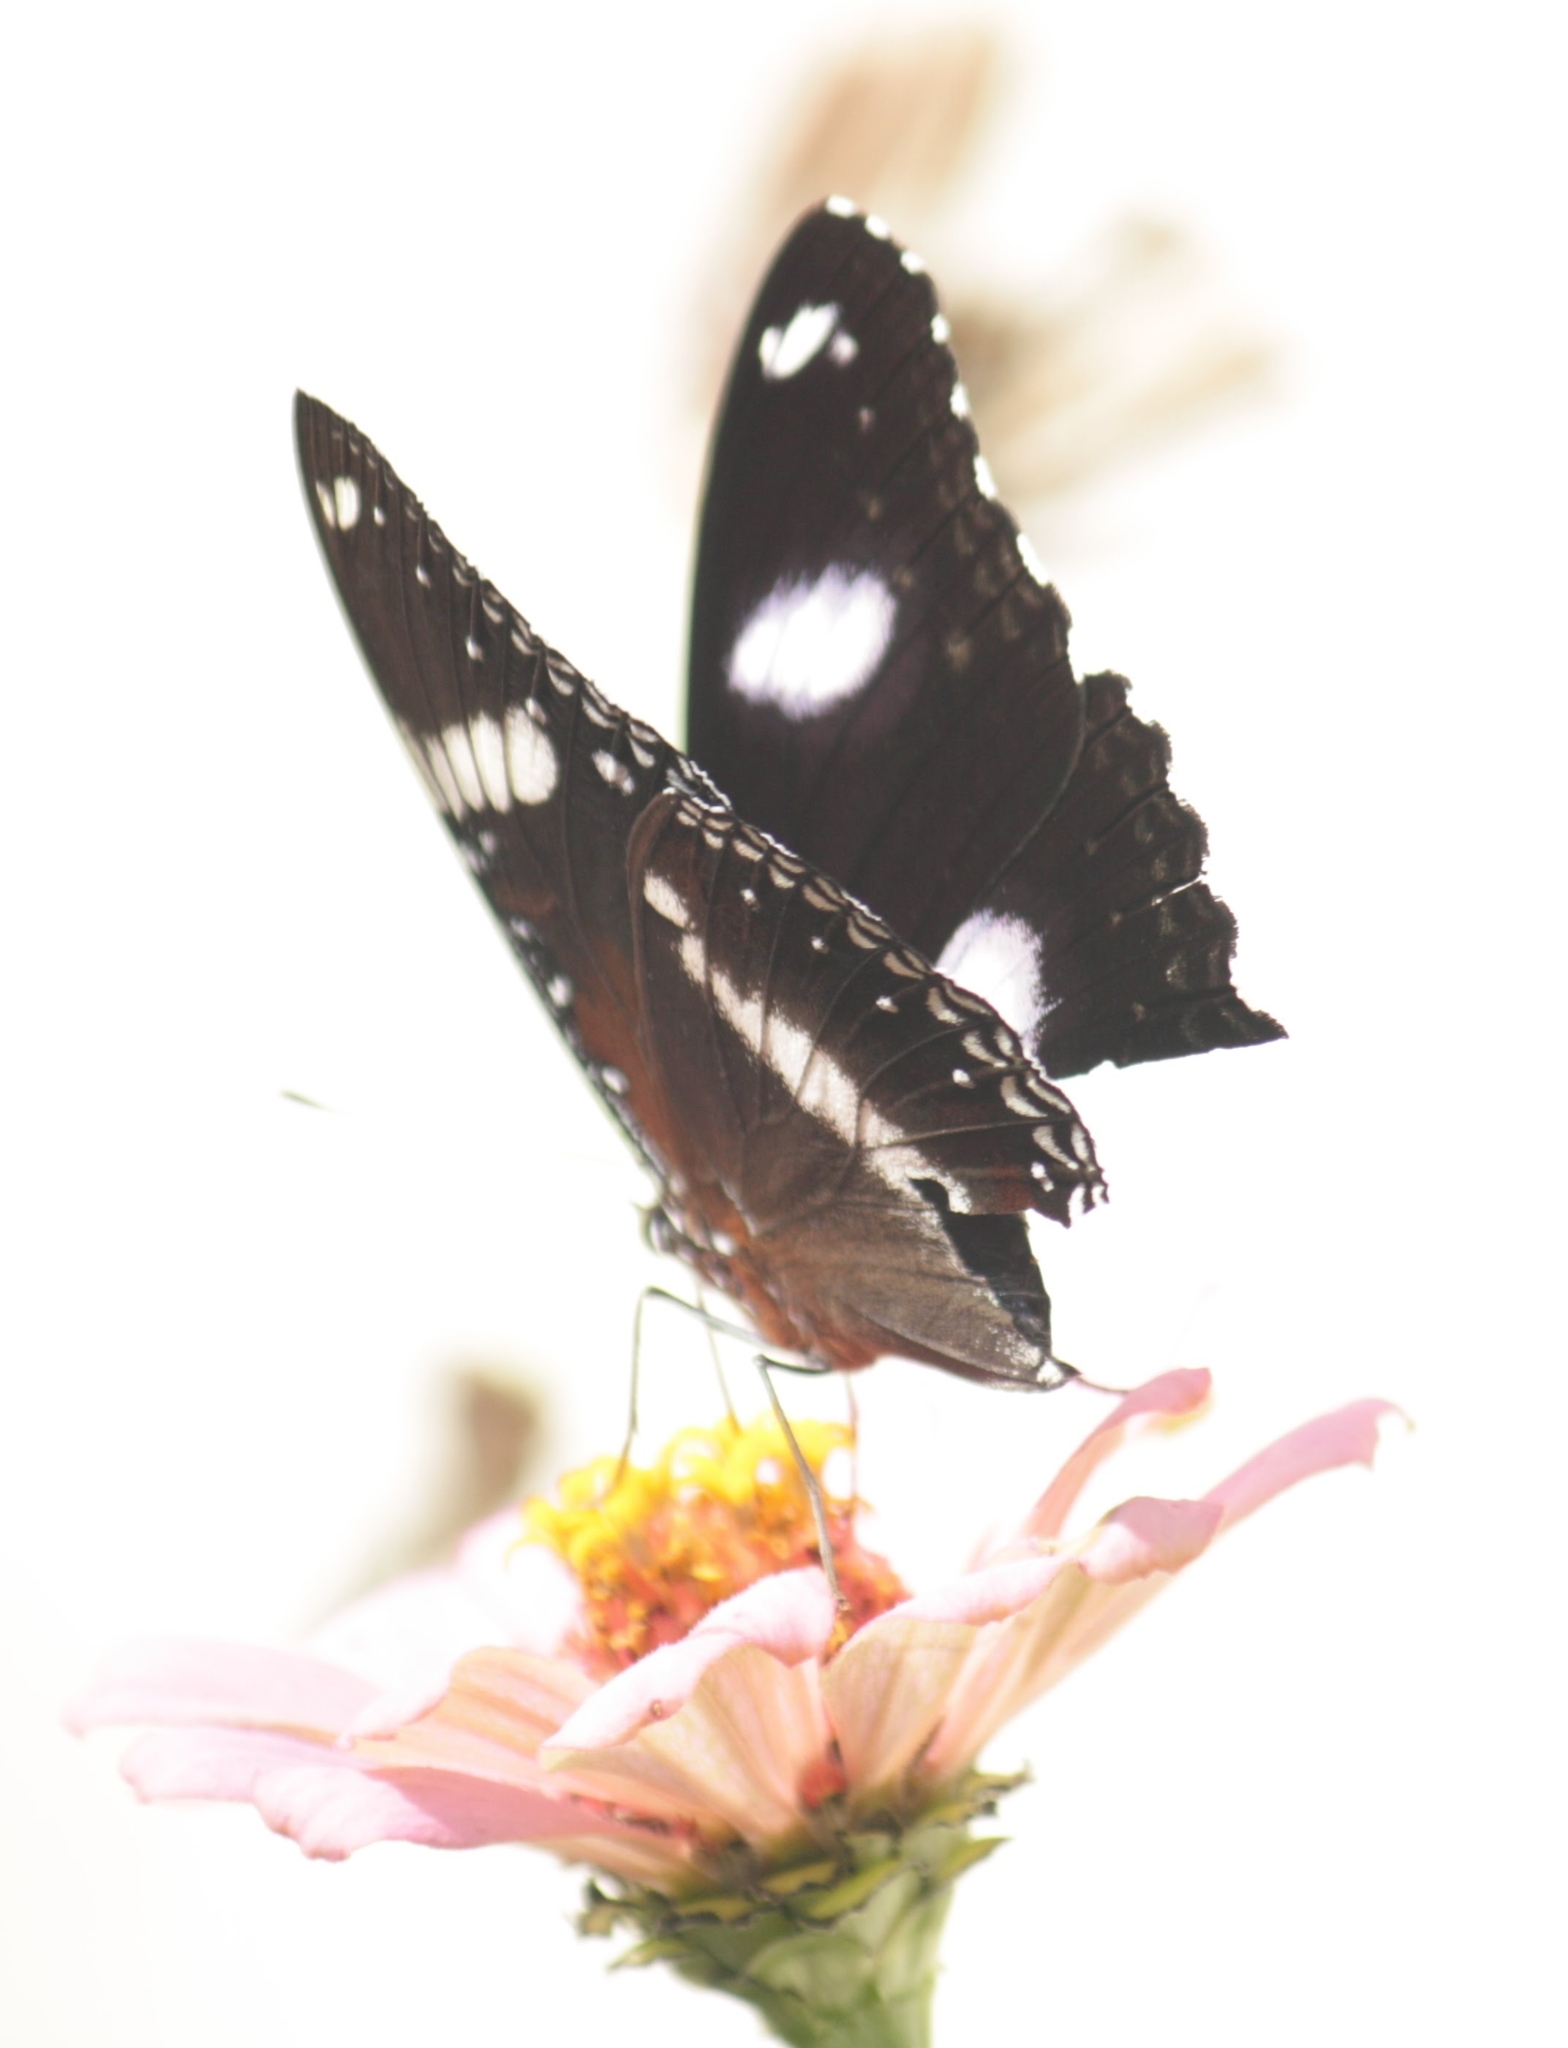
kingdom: Animalia
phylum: Arthropoda
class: Insecta
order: Lepidoptera
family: Nymphalidae
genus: Hypolimnas
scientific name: Hypolimnas bolina
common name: Great eggfly
